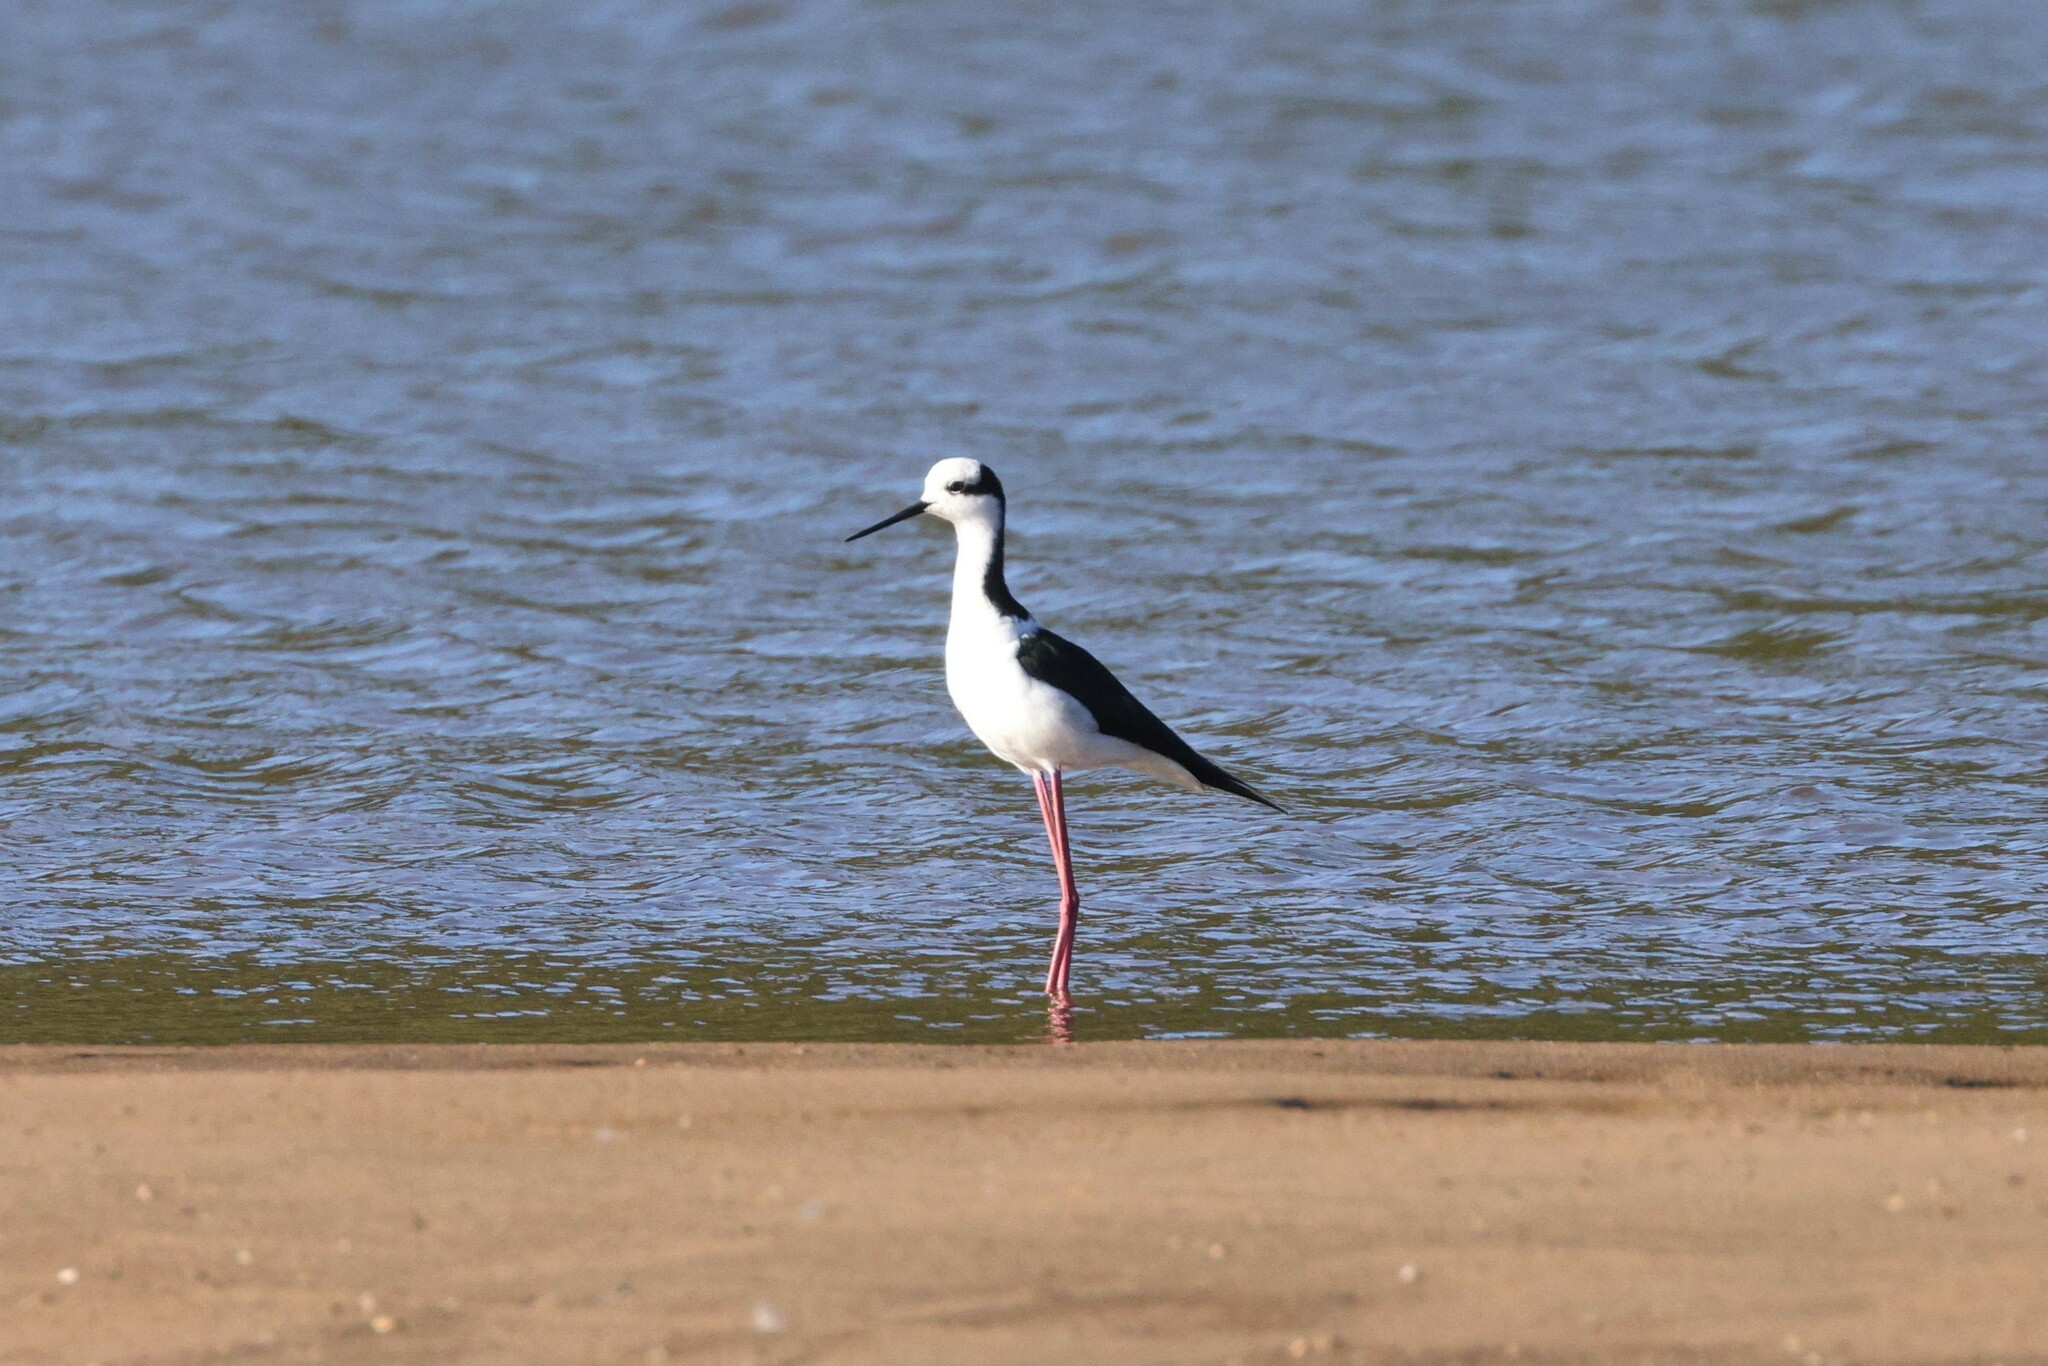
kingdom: Animalia
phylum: Chordata
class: Aves
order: Charadriiformes
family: Recurvirostridae
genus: Himantopus
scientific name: Himantopus mexicanus
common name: Black-necked stilt
